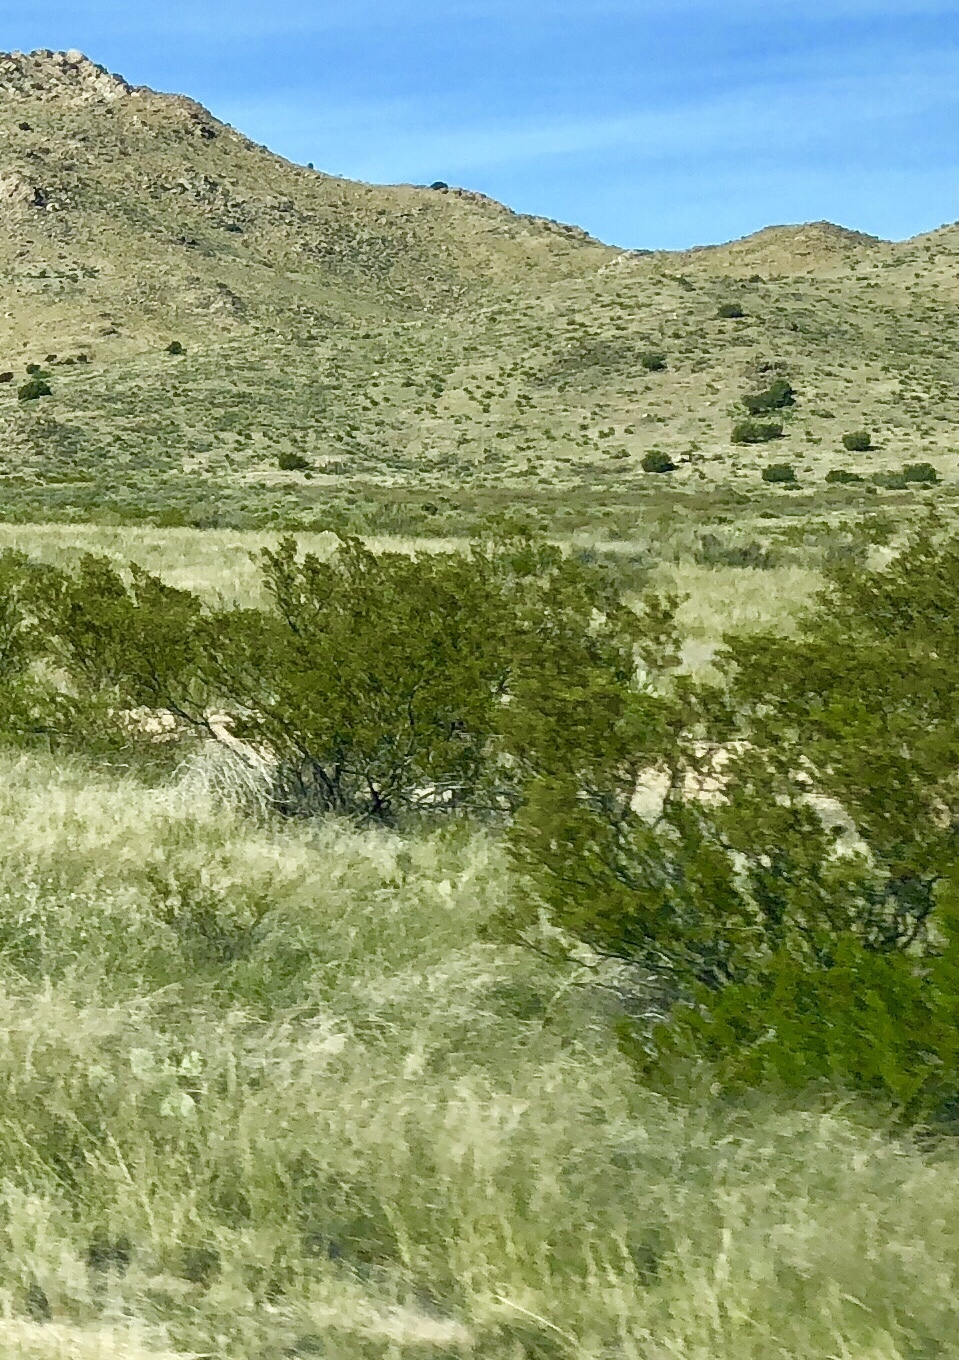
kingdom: Plantae
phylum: Tracheophyta
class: Magnoliopsida
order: Zygophyllales
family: Zygophyllaceae
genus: Larrea
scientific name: Larrea tridentata
